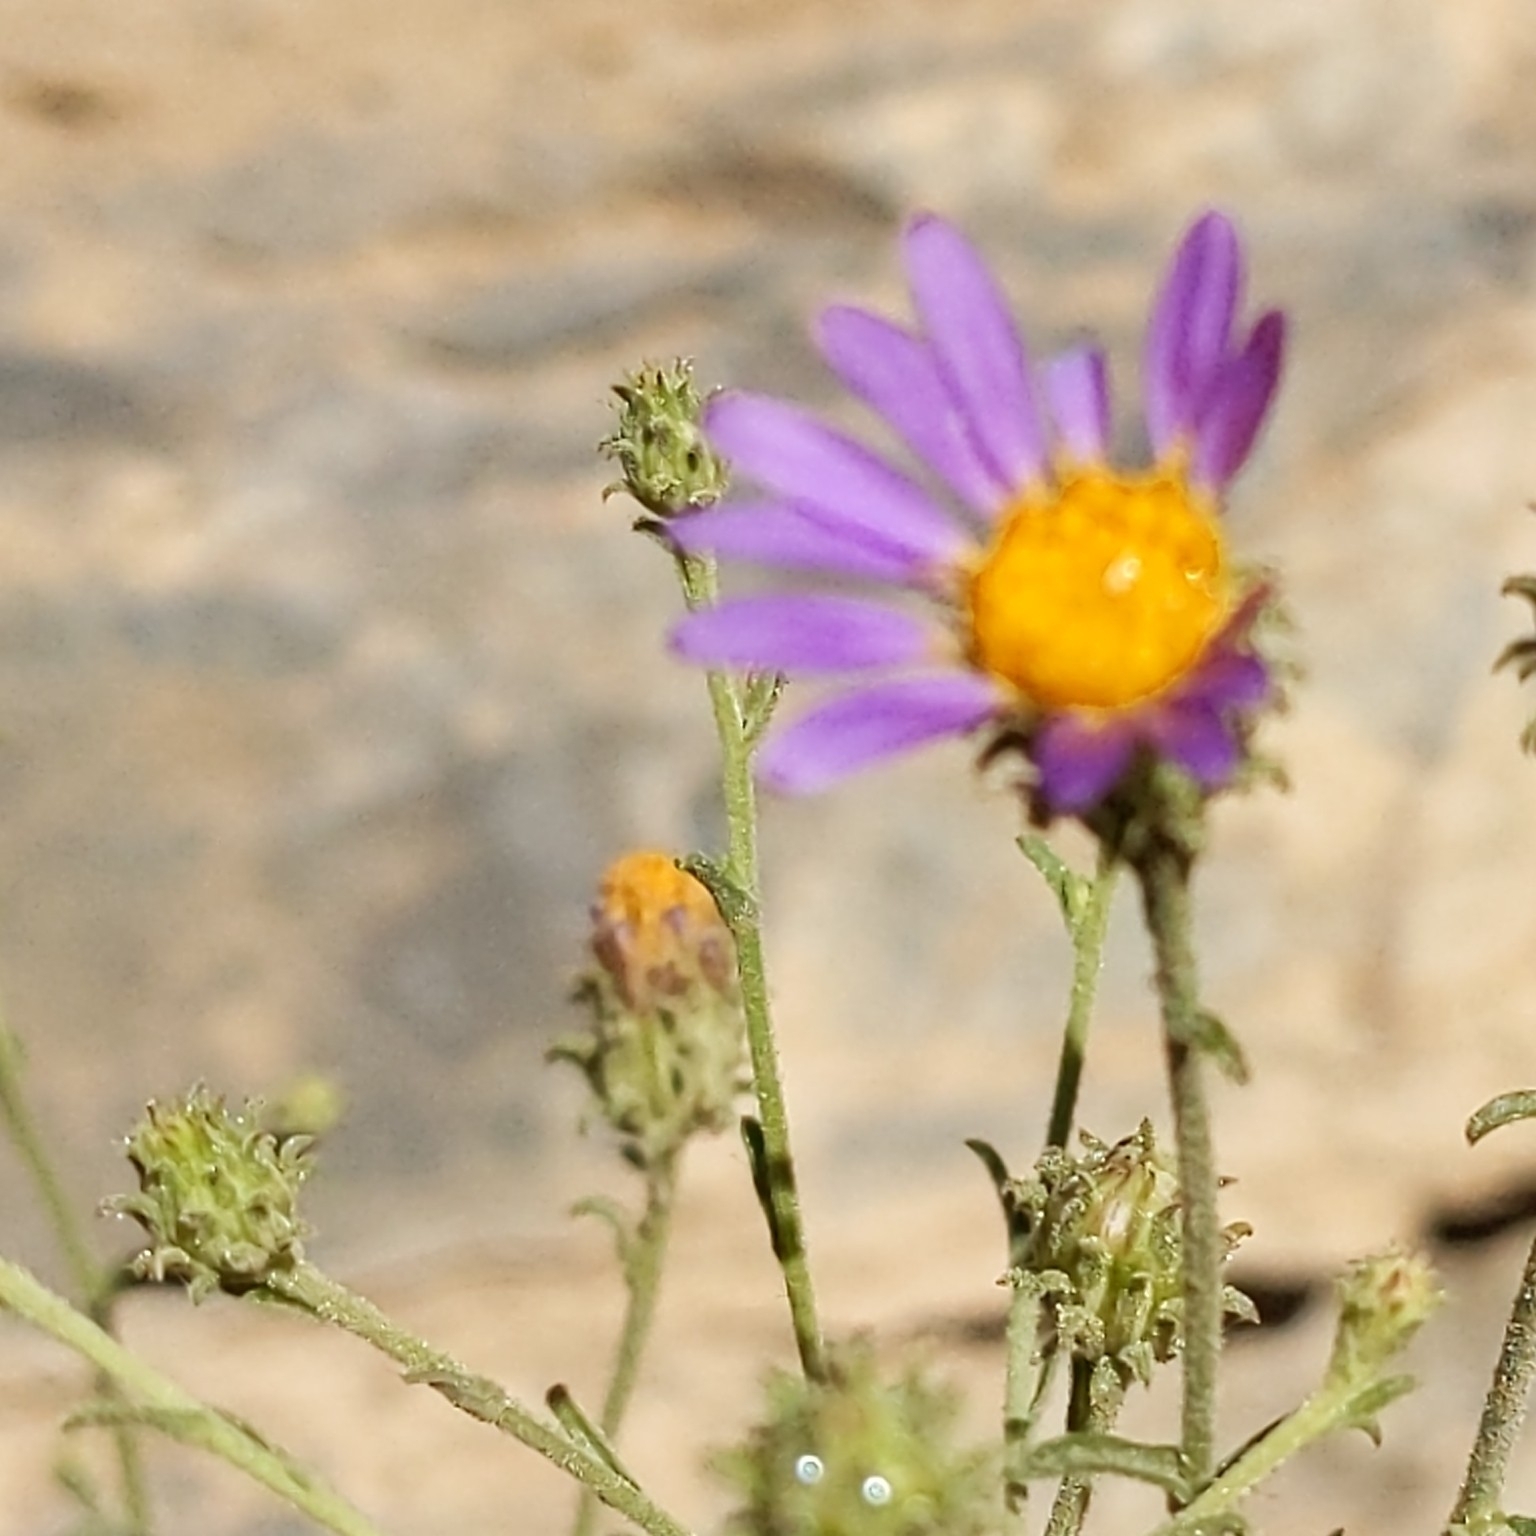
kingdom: Plantae
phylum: Tracheophyta
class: Magnoliopsida
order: Asterales
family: Asteraceae
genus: Dieteria
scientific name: Dieteria canescens
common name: Hoary-aster
